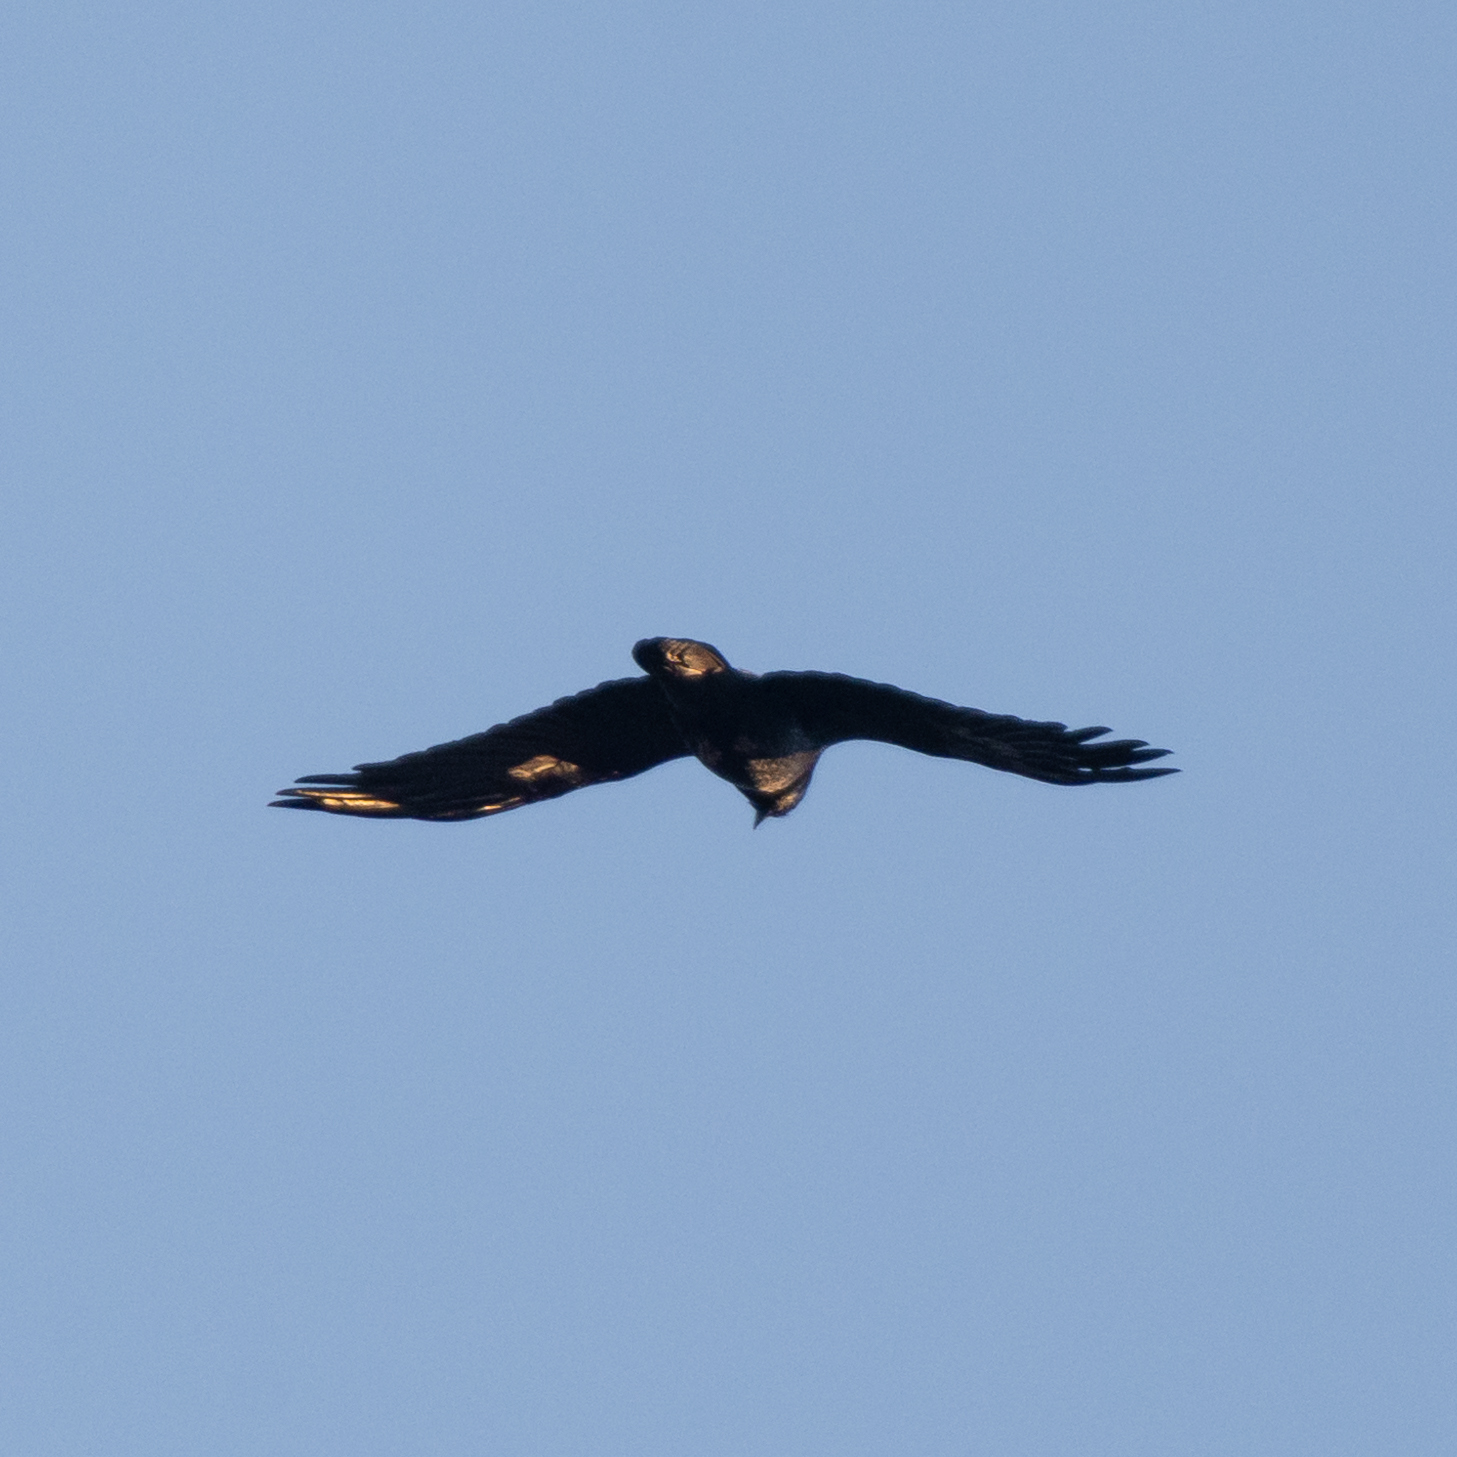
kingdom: Animalia
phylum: Chordata
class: Aves
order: Passeriformes
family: Corvidae
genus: Corvus
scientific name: Corvus corax
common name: Common raven
